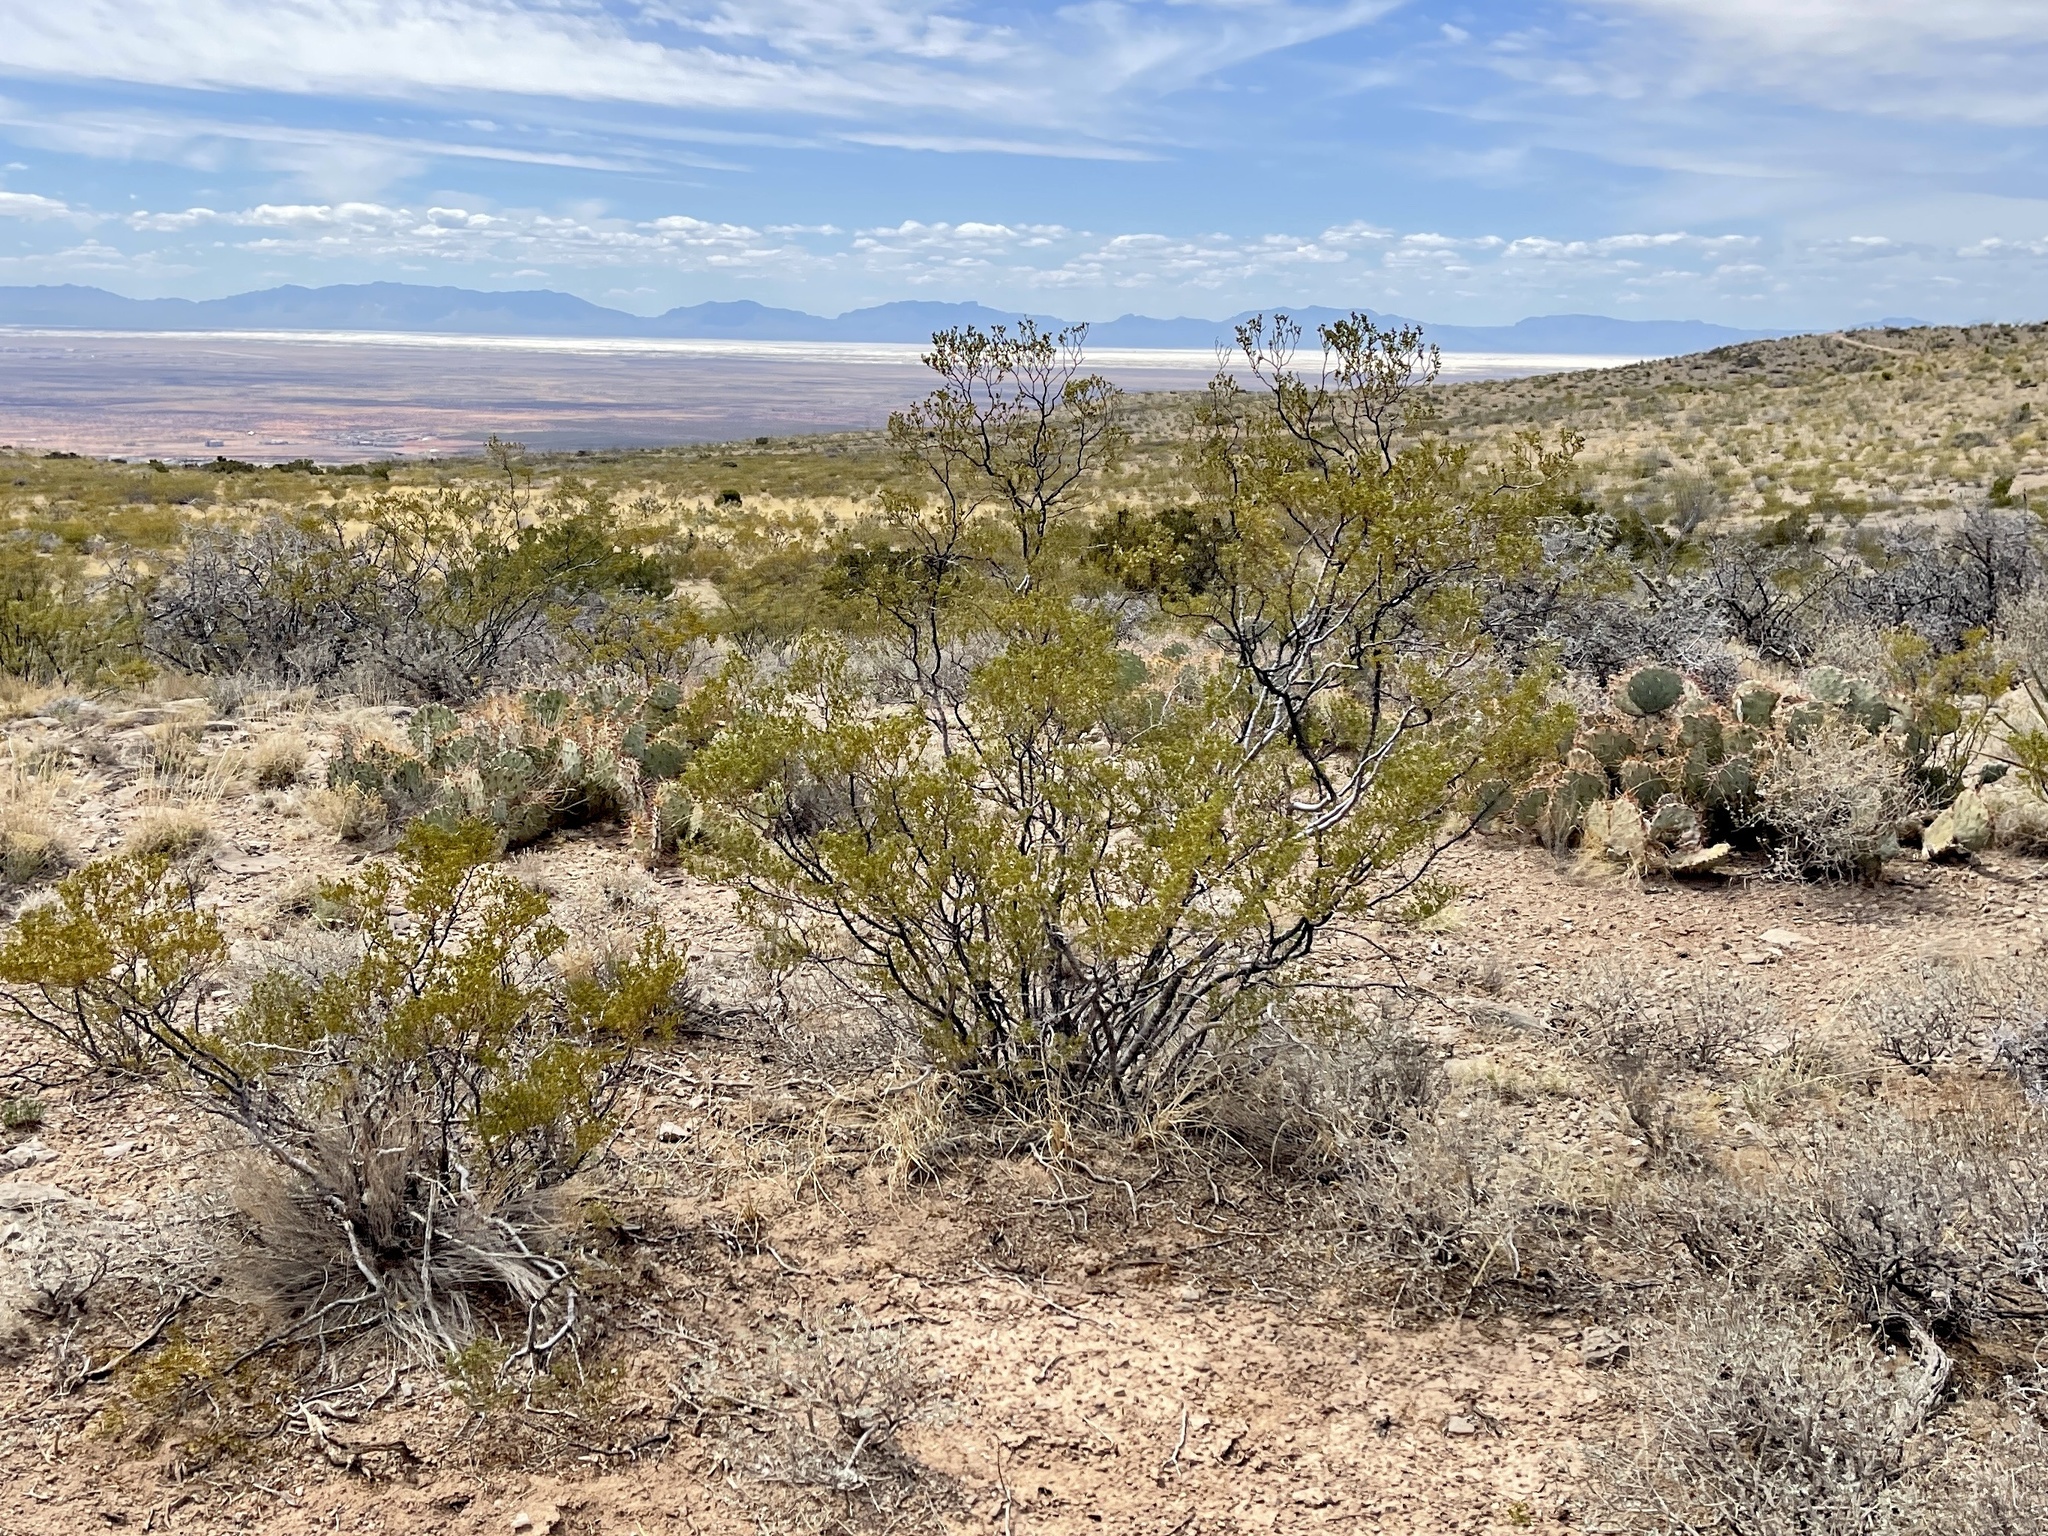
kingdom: Plantae
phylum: Tracheophyta
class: Magnoliopsida
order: Zygophyllales
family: Zygophyllaceae
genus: Larrea
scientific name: Larrea tridentata
